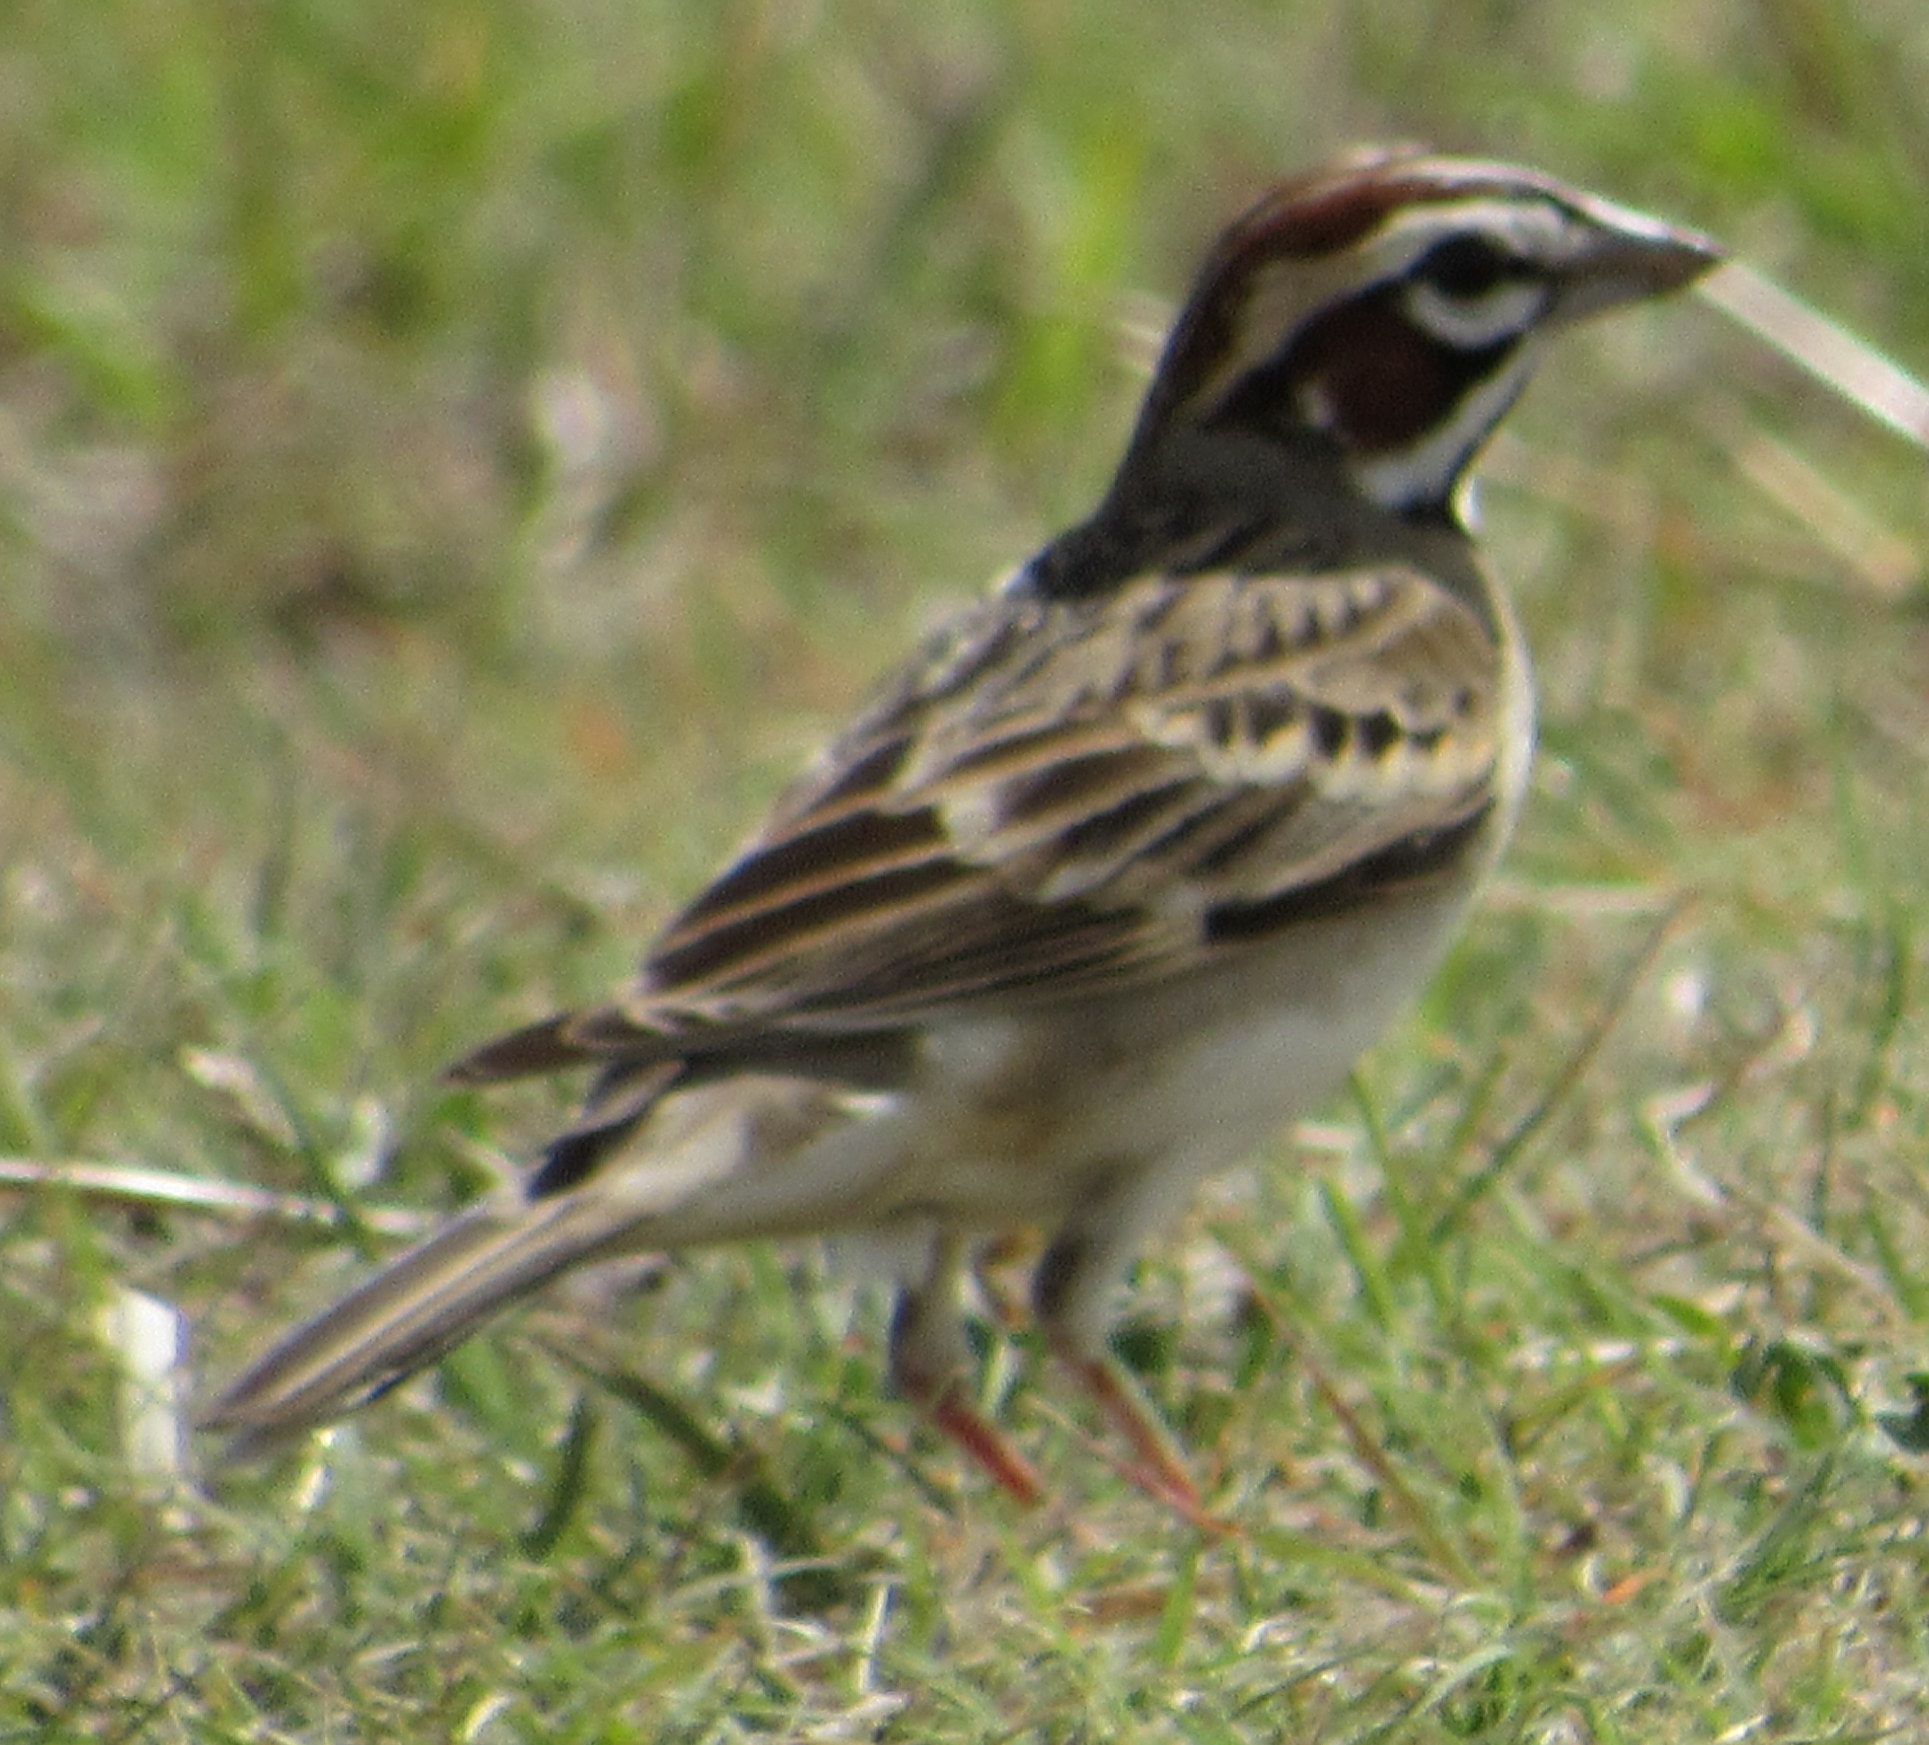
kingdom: Animalia
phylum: Chordata
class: Aves
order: Passeriformes
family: Passerellidae
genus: Chondestes
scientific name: Chondestes grammacus
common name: Lark sparrow
